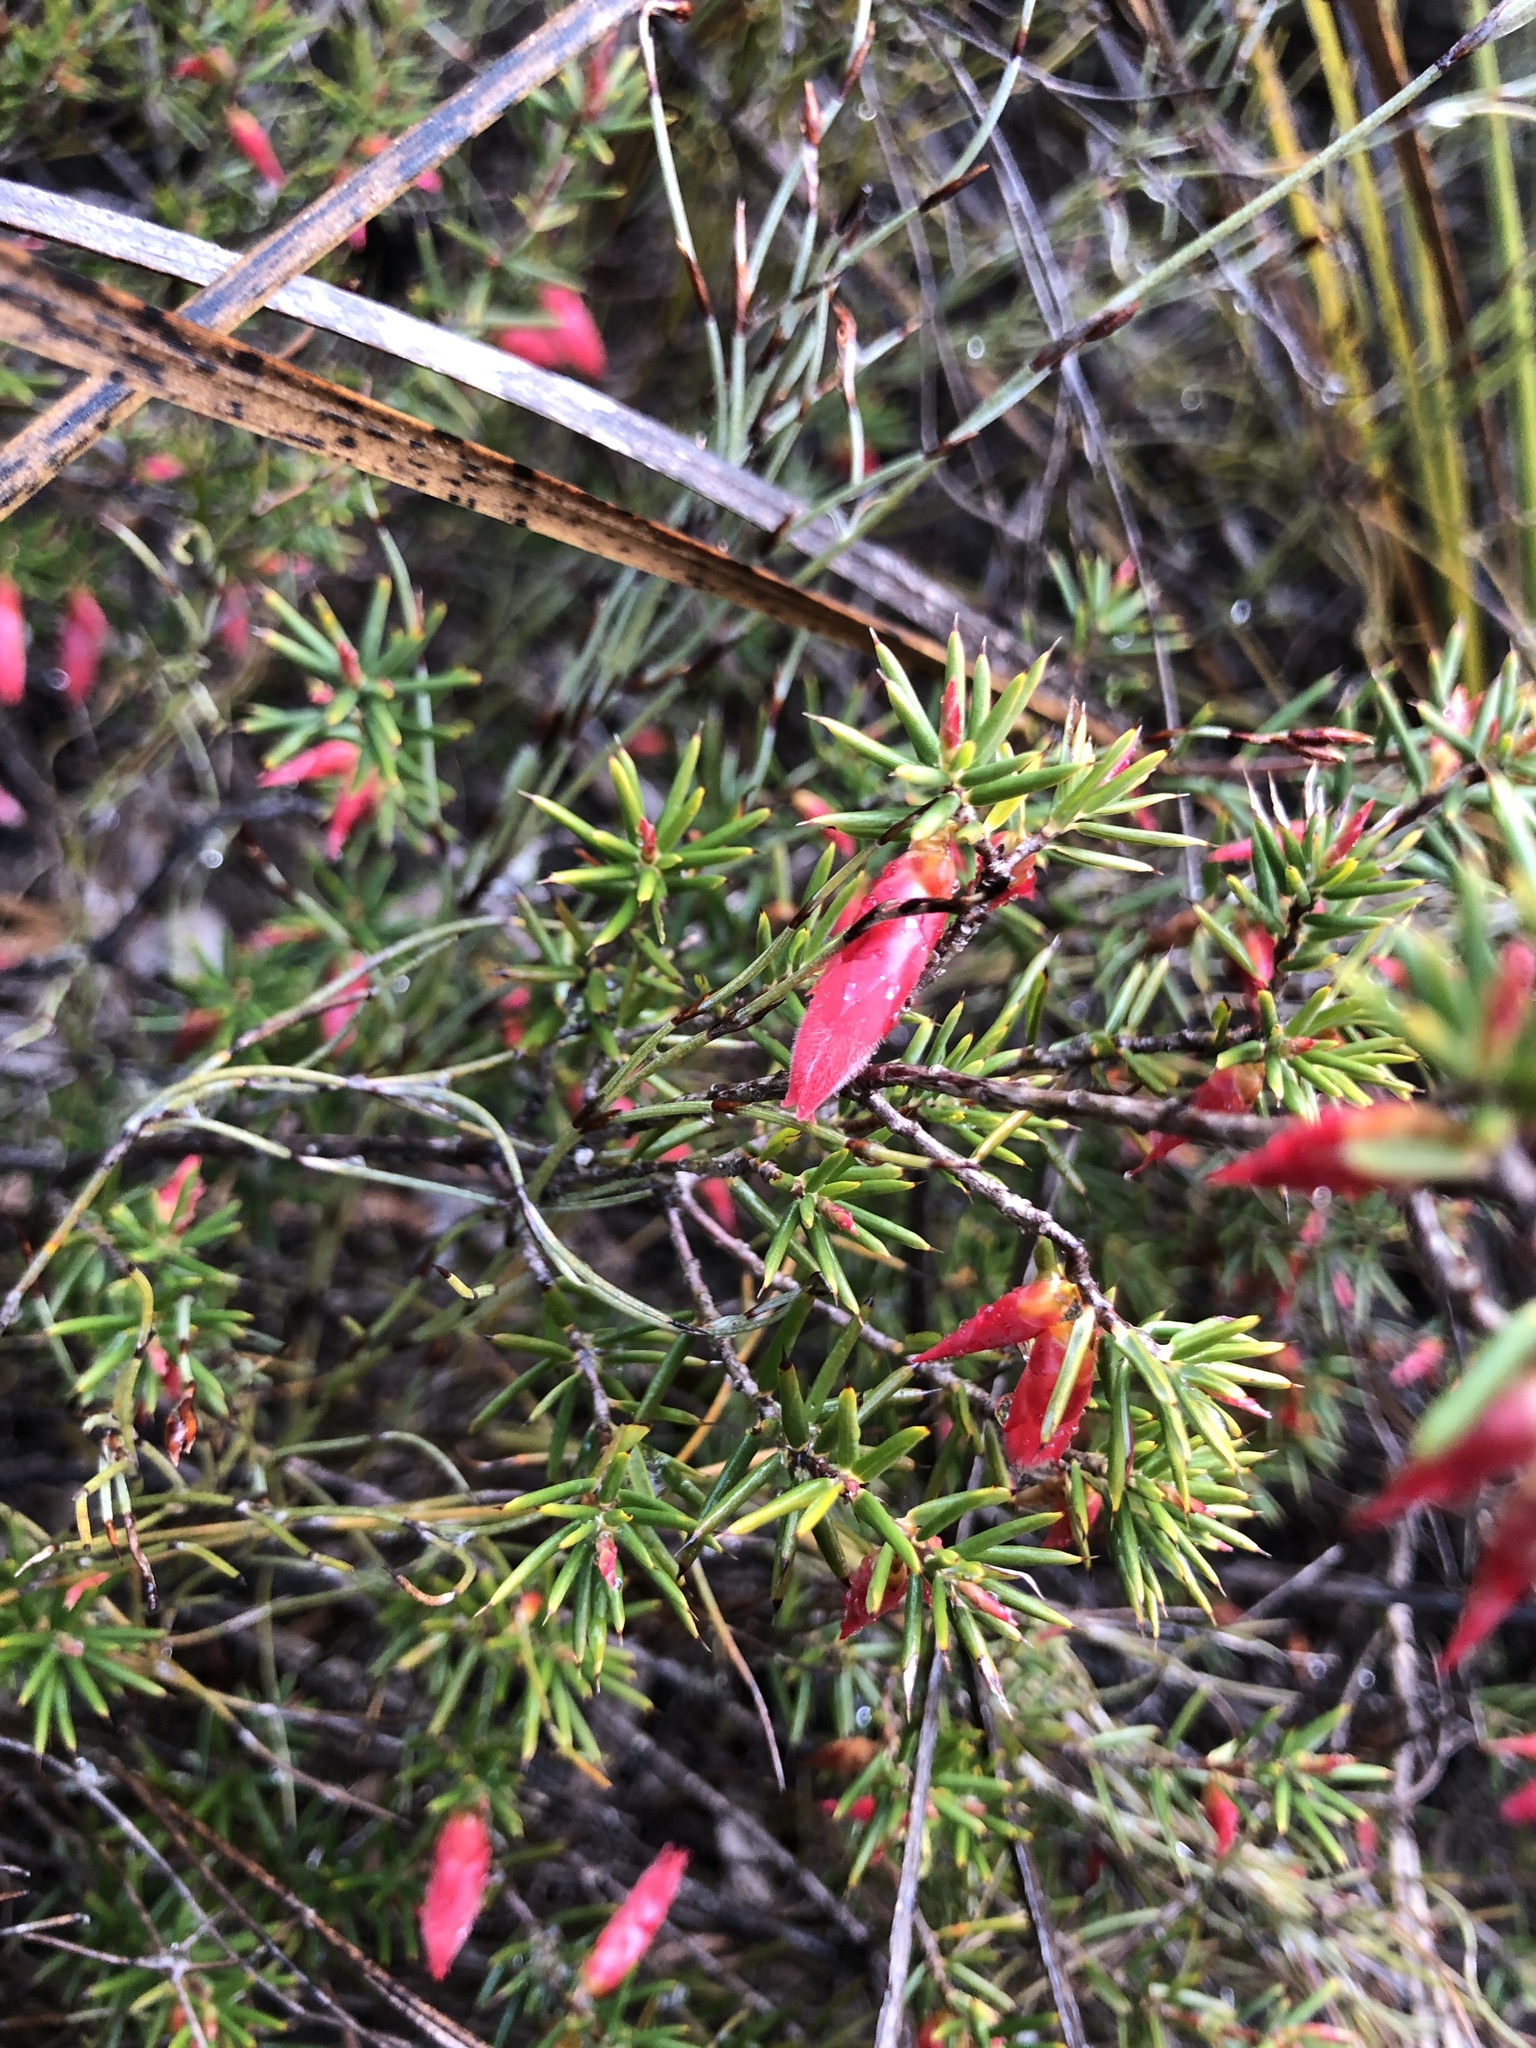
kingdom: Plantae
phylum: Tracheophyta
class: Magnoliopsida
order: Ericales
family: Ericaceae
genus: Stenanthera
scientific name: Stenanthera conostephioides
